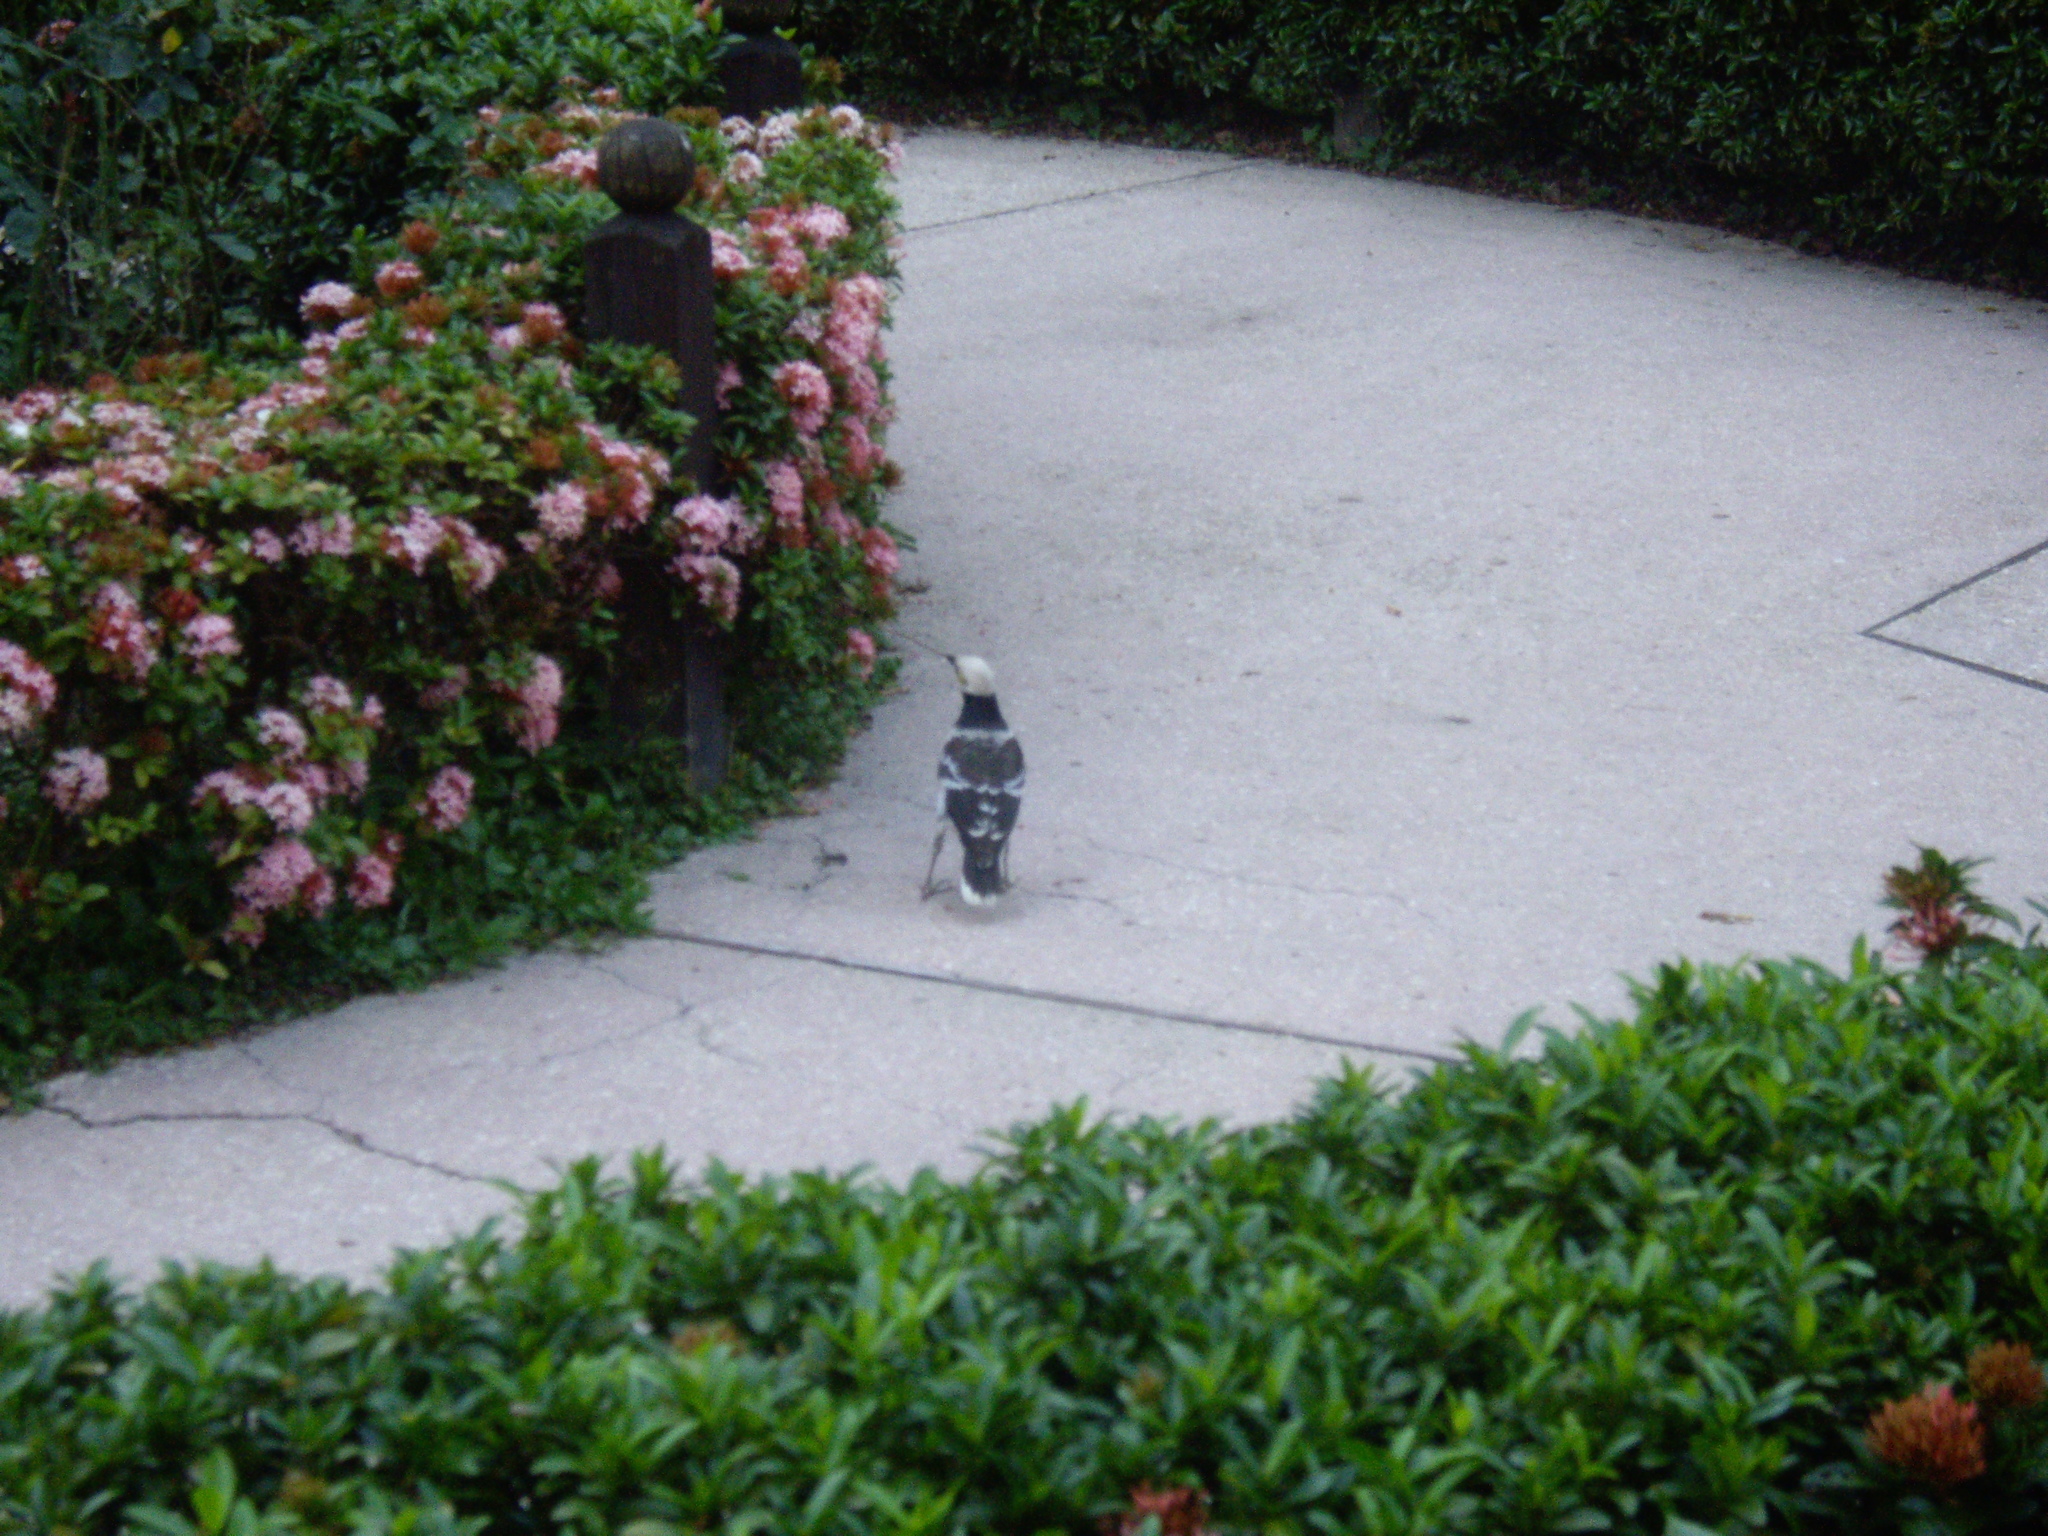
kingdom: Animalia
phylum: Chordata
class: Aves
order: Passeriformes
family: Sturnidae
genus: Gracupica
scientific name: Gracupica nigricollis
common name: Black-collared starling
